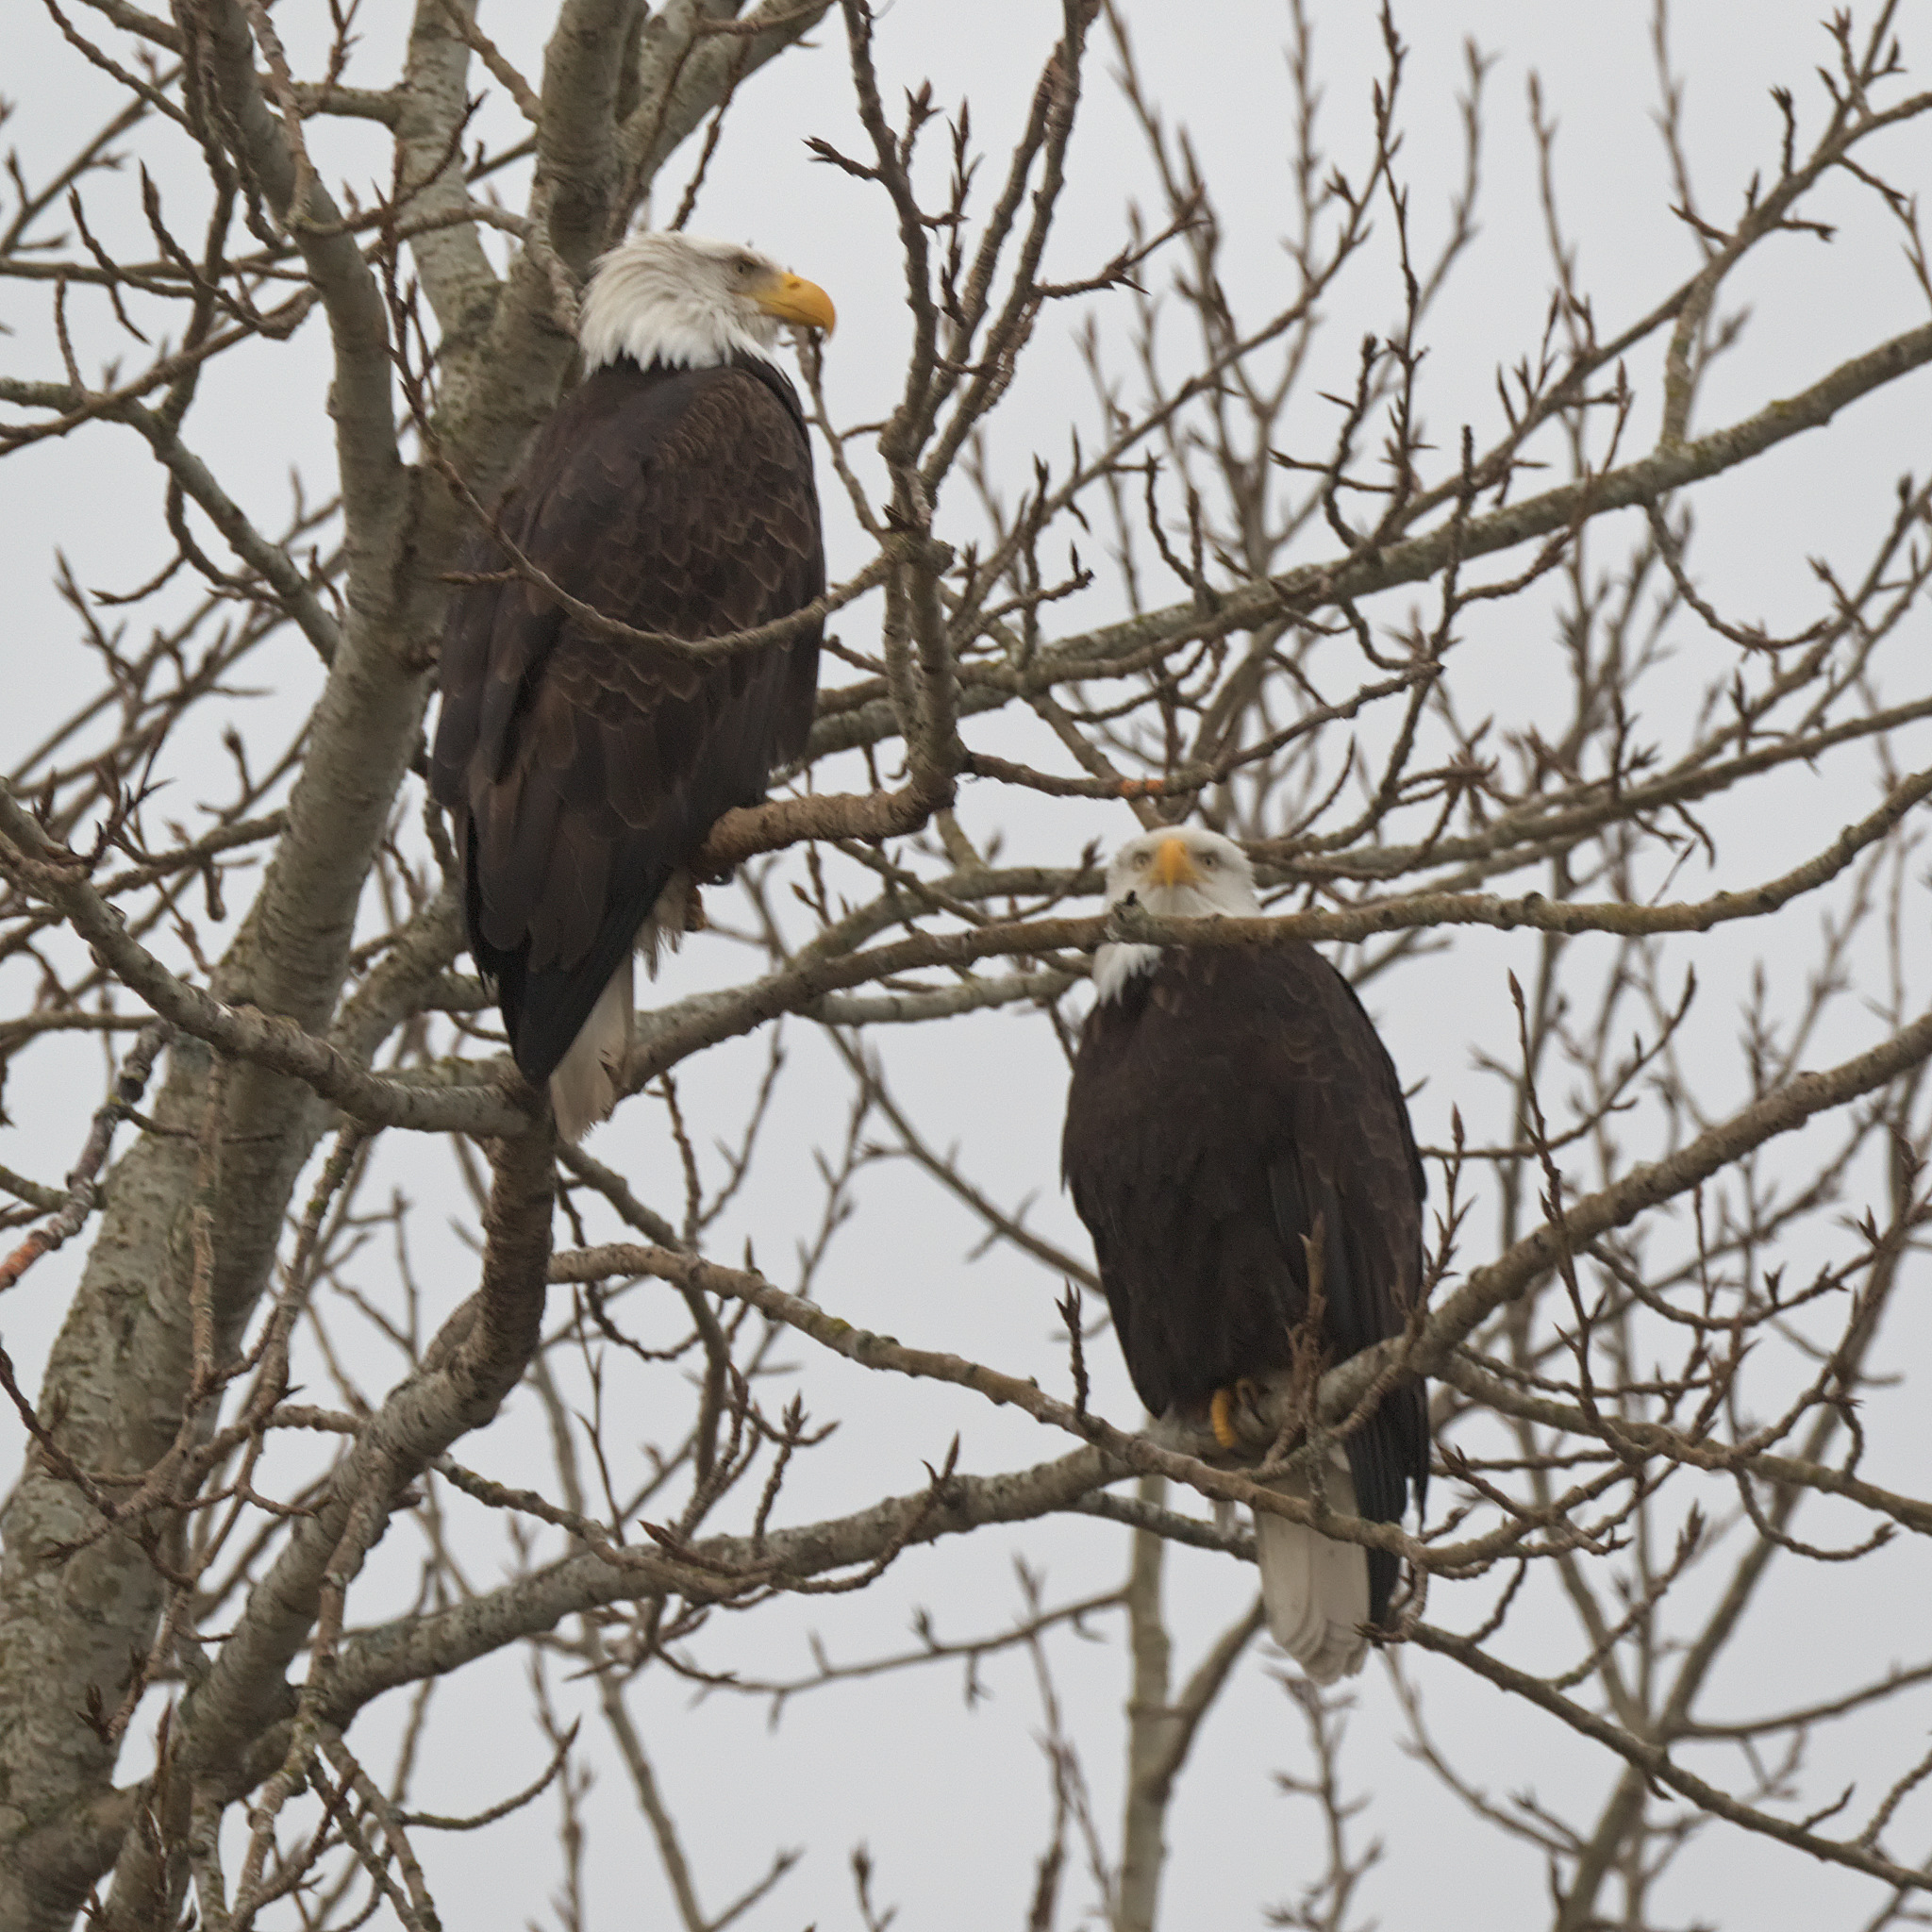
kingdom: Animalia
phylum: Chordata
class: Aves
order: Accipitriformes
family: Accipitridae
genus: Haliaeetus
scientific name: Haliaeetus leucocephalus
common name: Bald eagle
